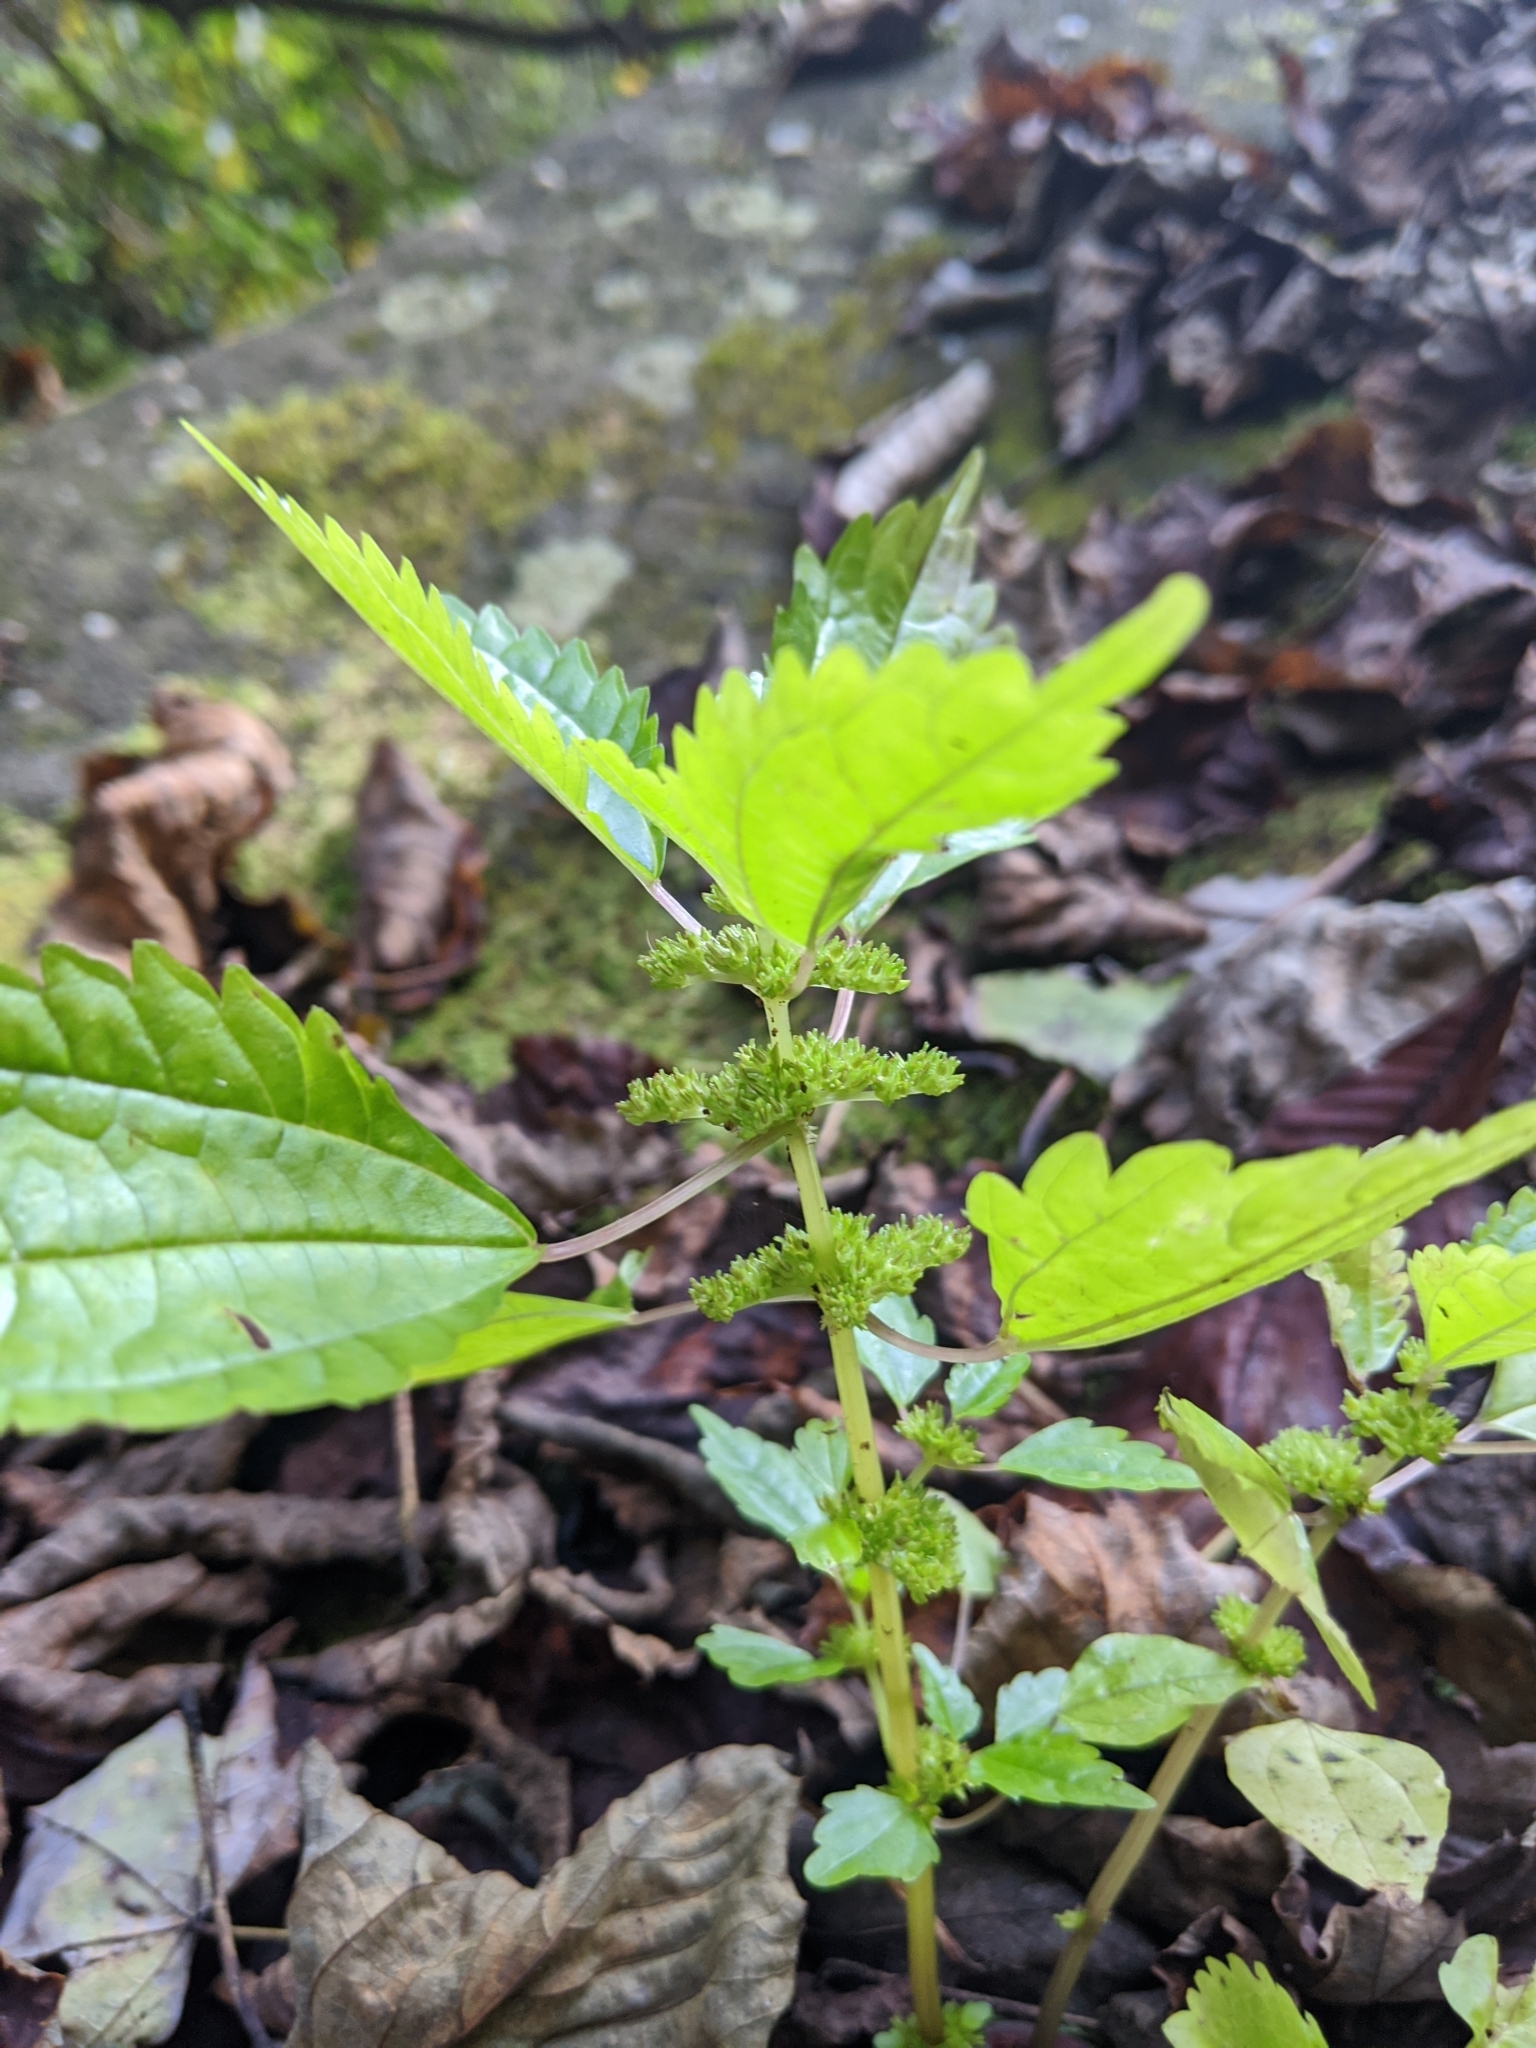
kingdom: Plantae
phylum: Tracheophyta
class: Magnoliopsida
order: Rosales
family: Urticaceae
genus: Pilea
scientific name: Pilea pumila
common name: Clearweed
